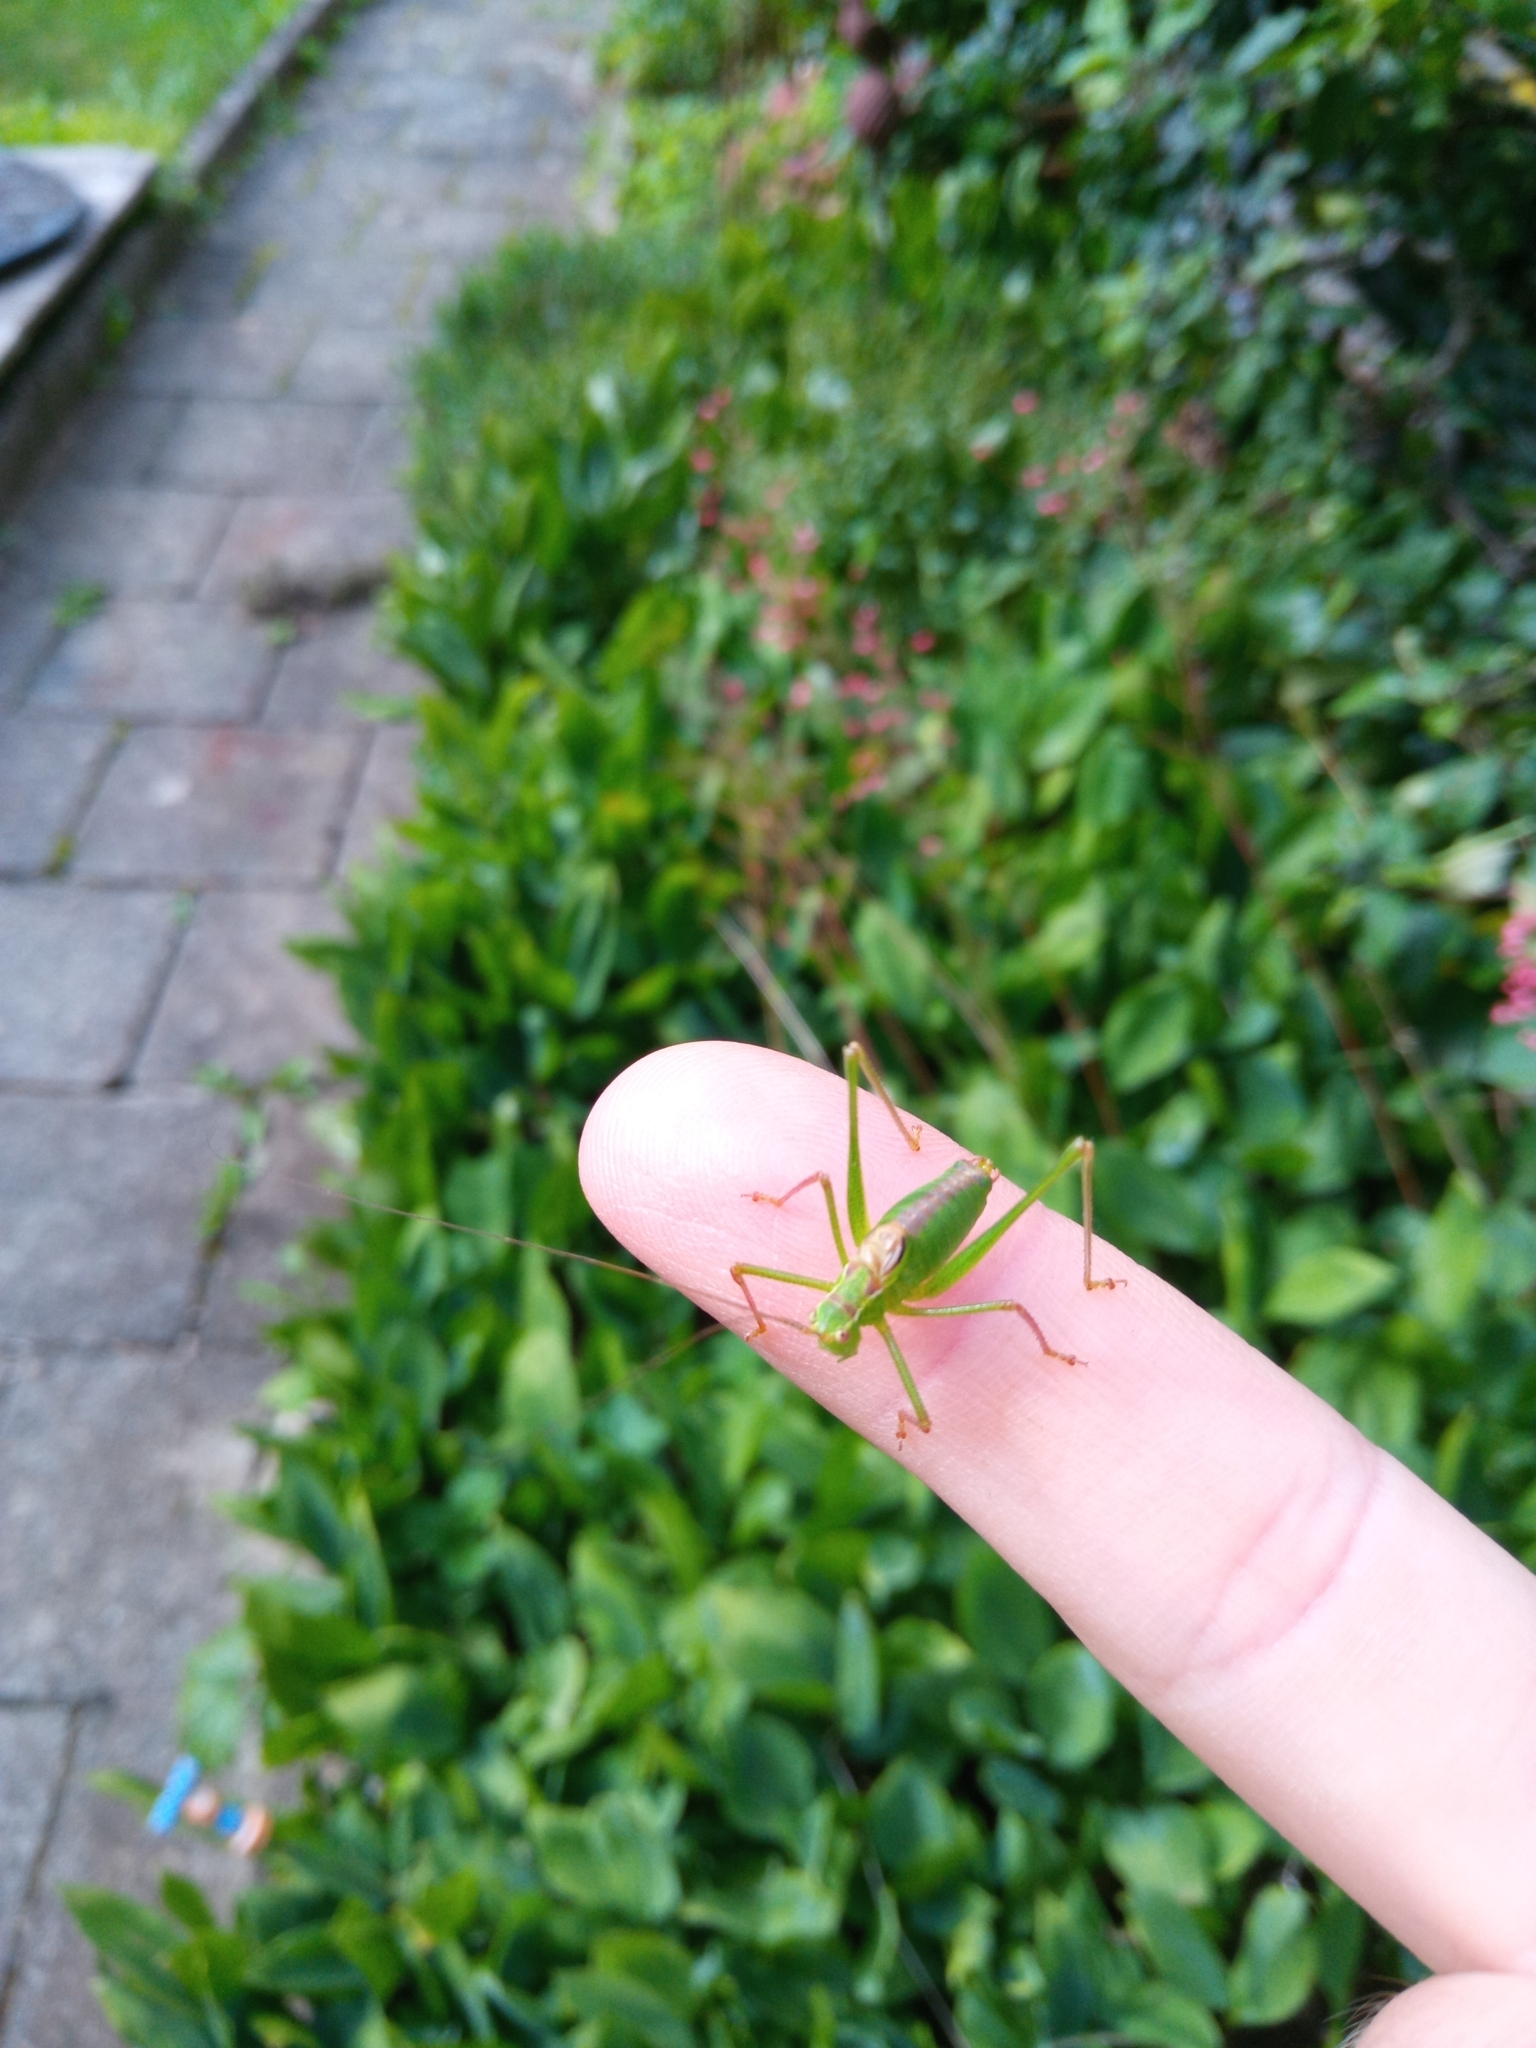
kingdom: Animalia
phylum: Arthropoda
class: Insecta
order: Orthoptera
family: Tettigoniidae
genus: Leptophyes
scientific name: Leptophyes punctatissima
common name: Speckled bush-cricket
